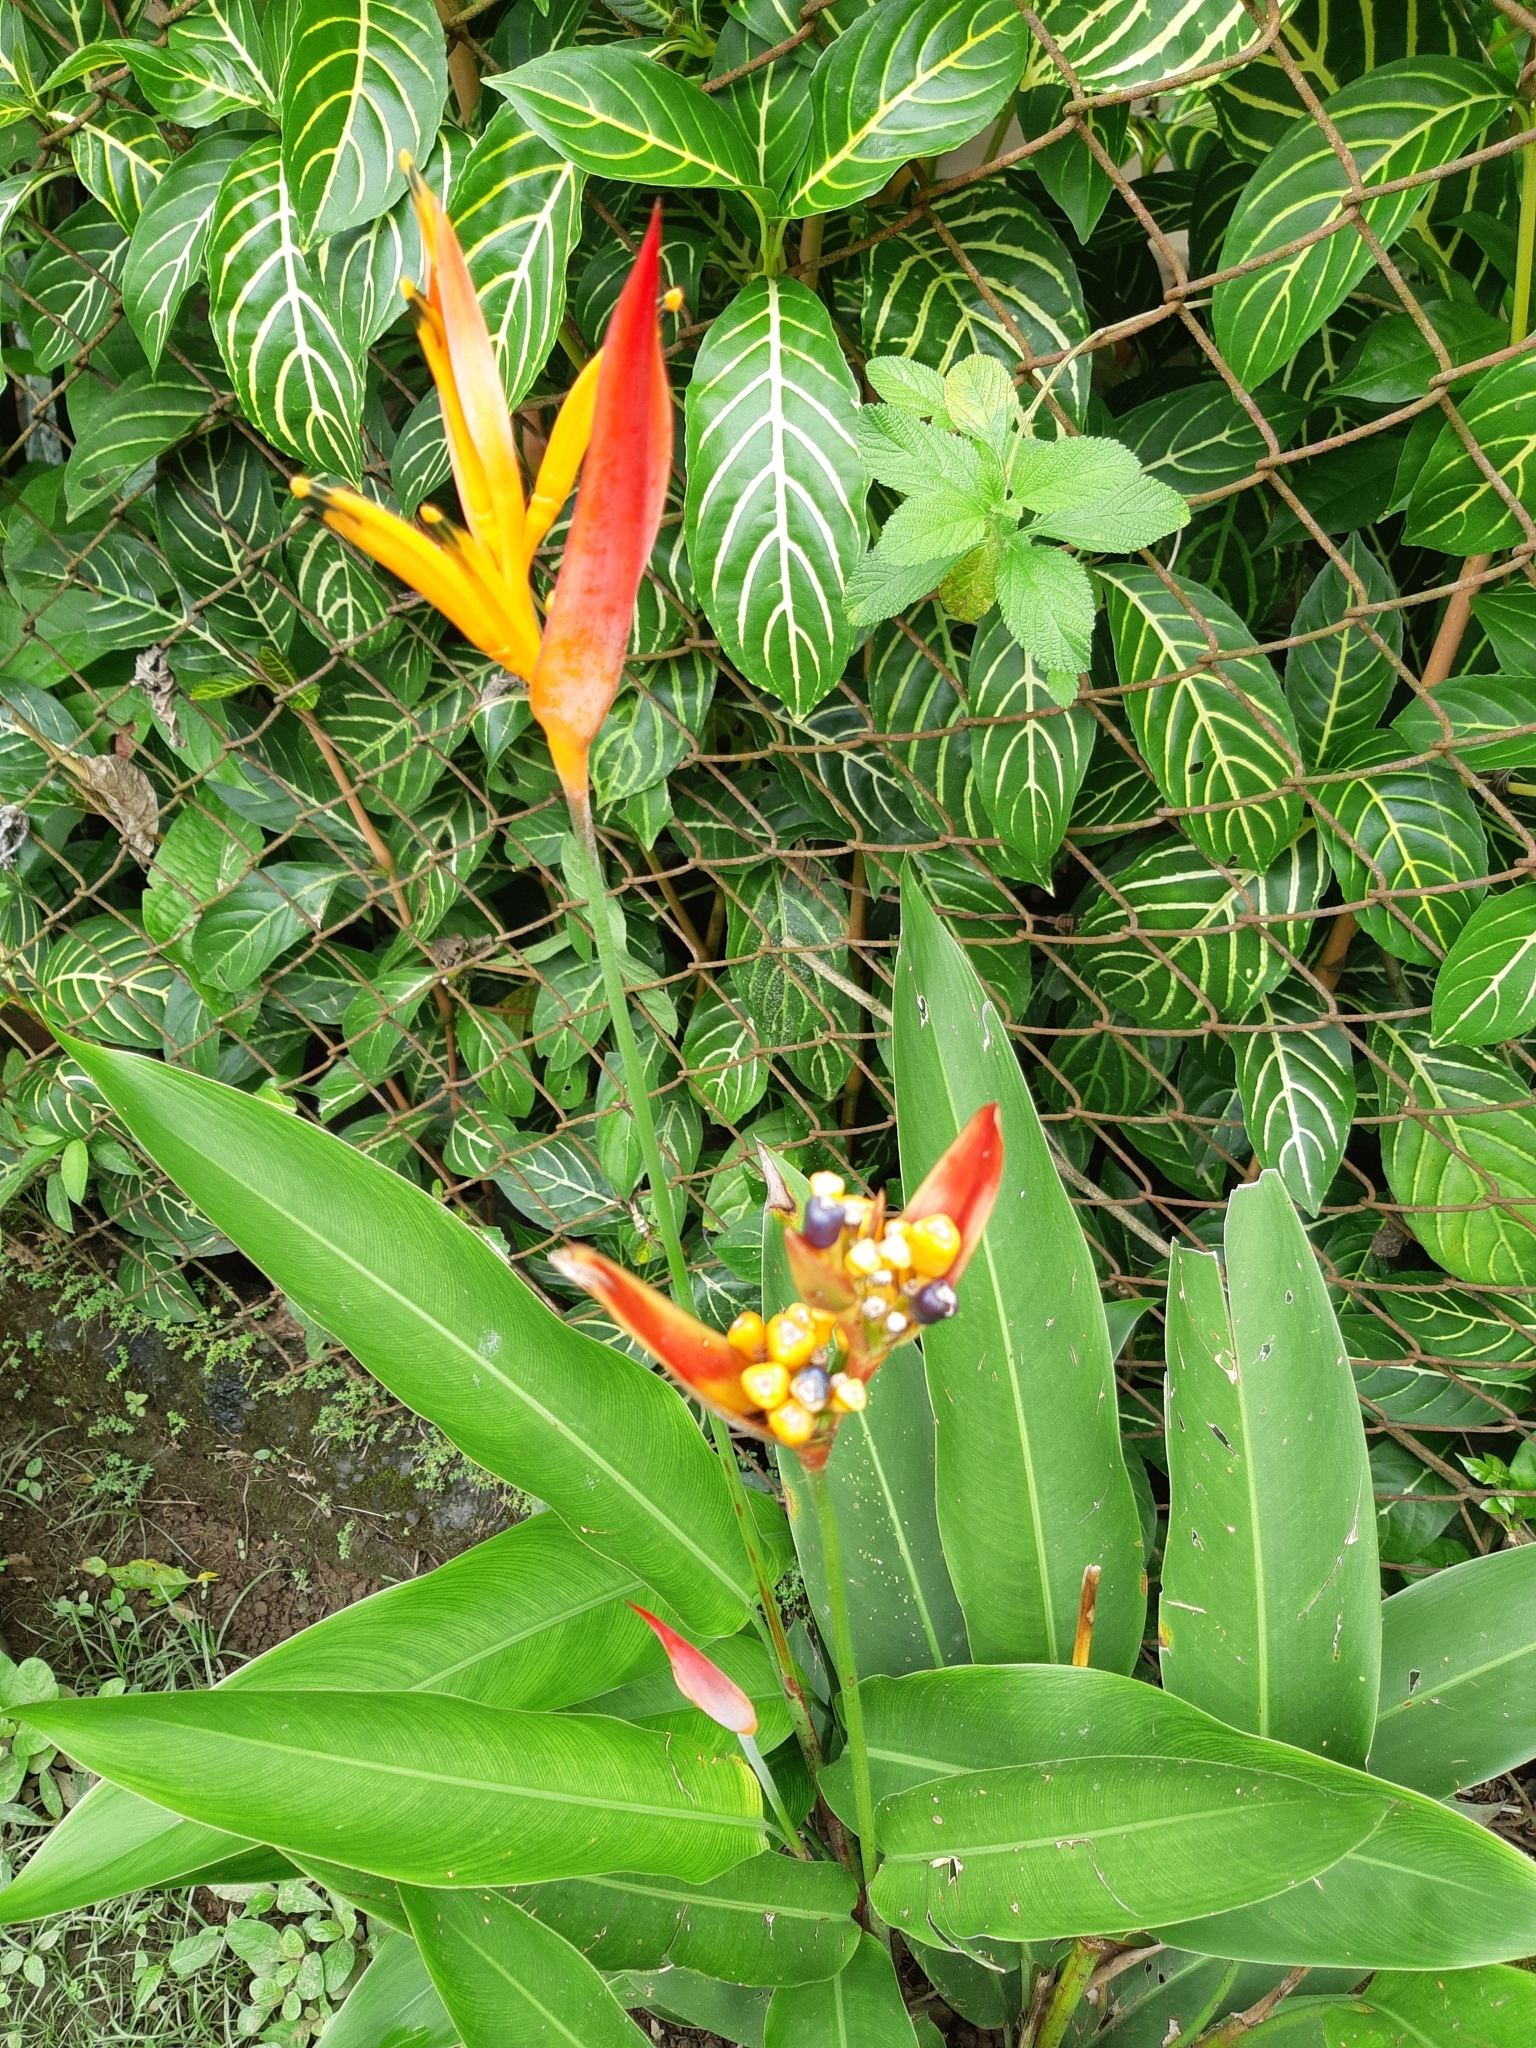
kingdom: Plantae
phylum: Tracheophyta
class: Liliopsida
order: Zingiberales
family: Heliconiaceae
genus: Heliconia
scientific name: Heliconia psittacorum
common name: Parrot's-flower
